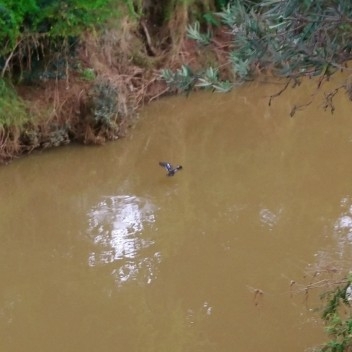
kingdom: Animalia
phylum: Chordata
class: Aves
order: Anseriformes
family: Anatidae
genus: Anas
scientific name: Anas sparsa
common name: African black duck
